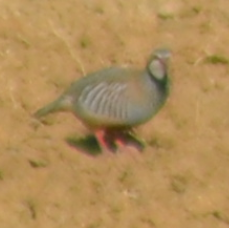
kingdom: Animalia
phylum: Chordata
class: Aves
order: Galliformes
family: Phasianidae
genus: Alectoris
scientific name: Alectoris rufa
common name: Red-legged partridge
